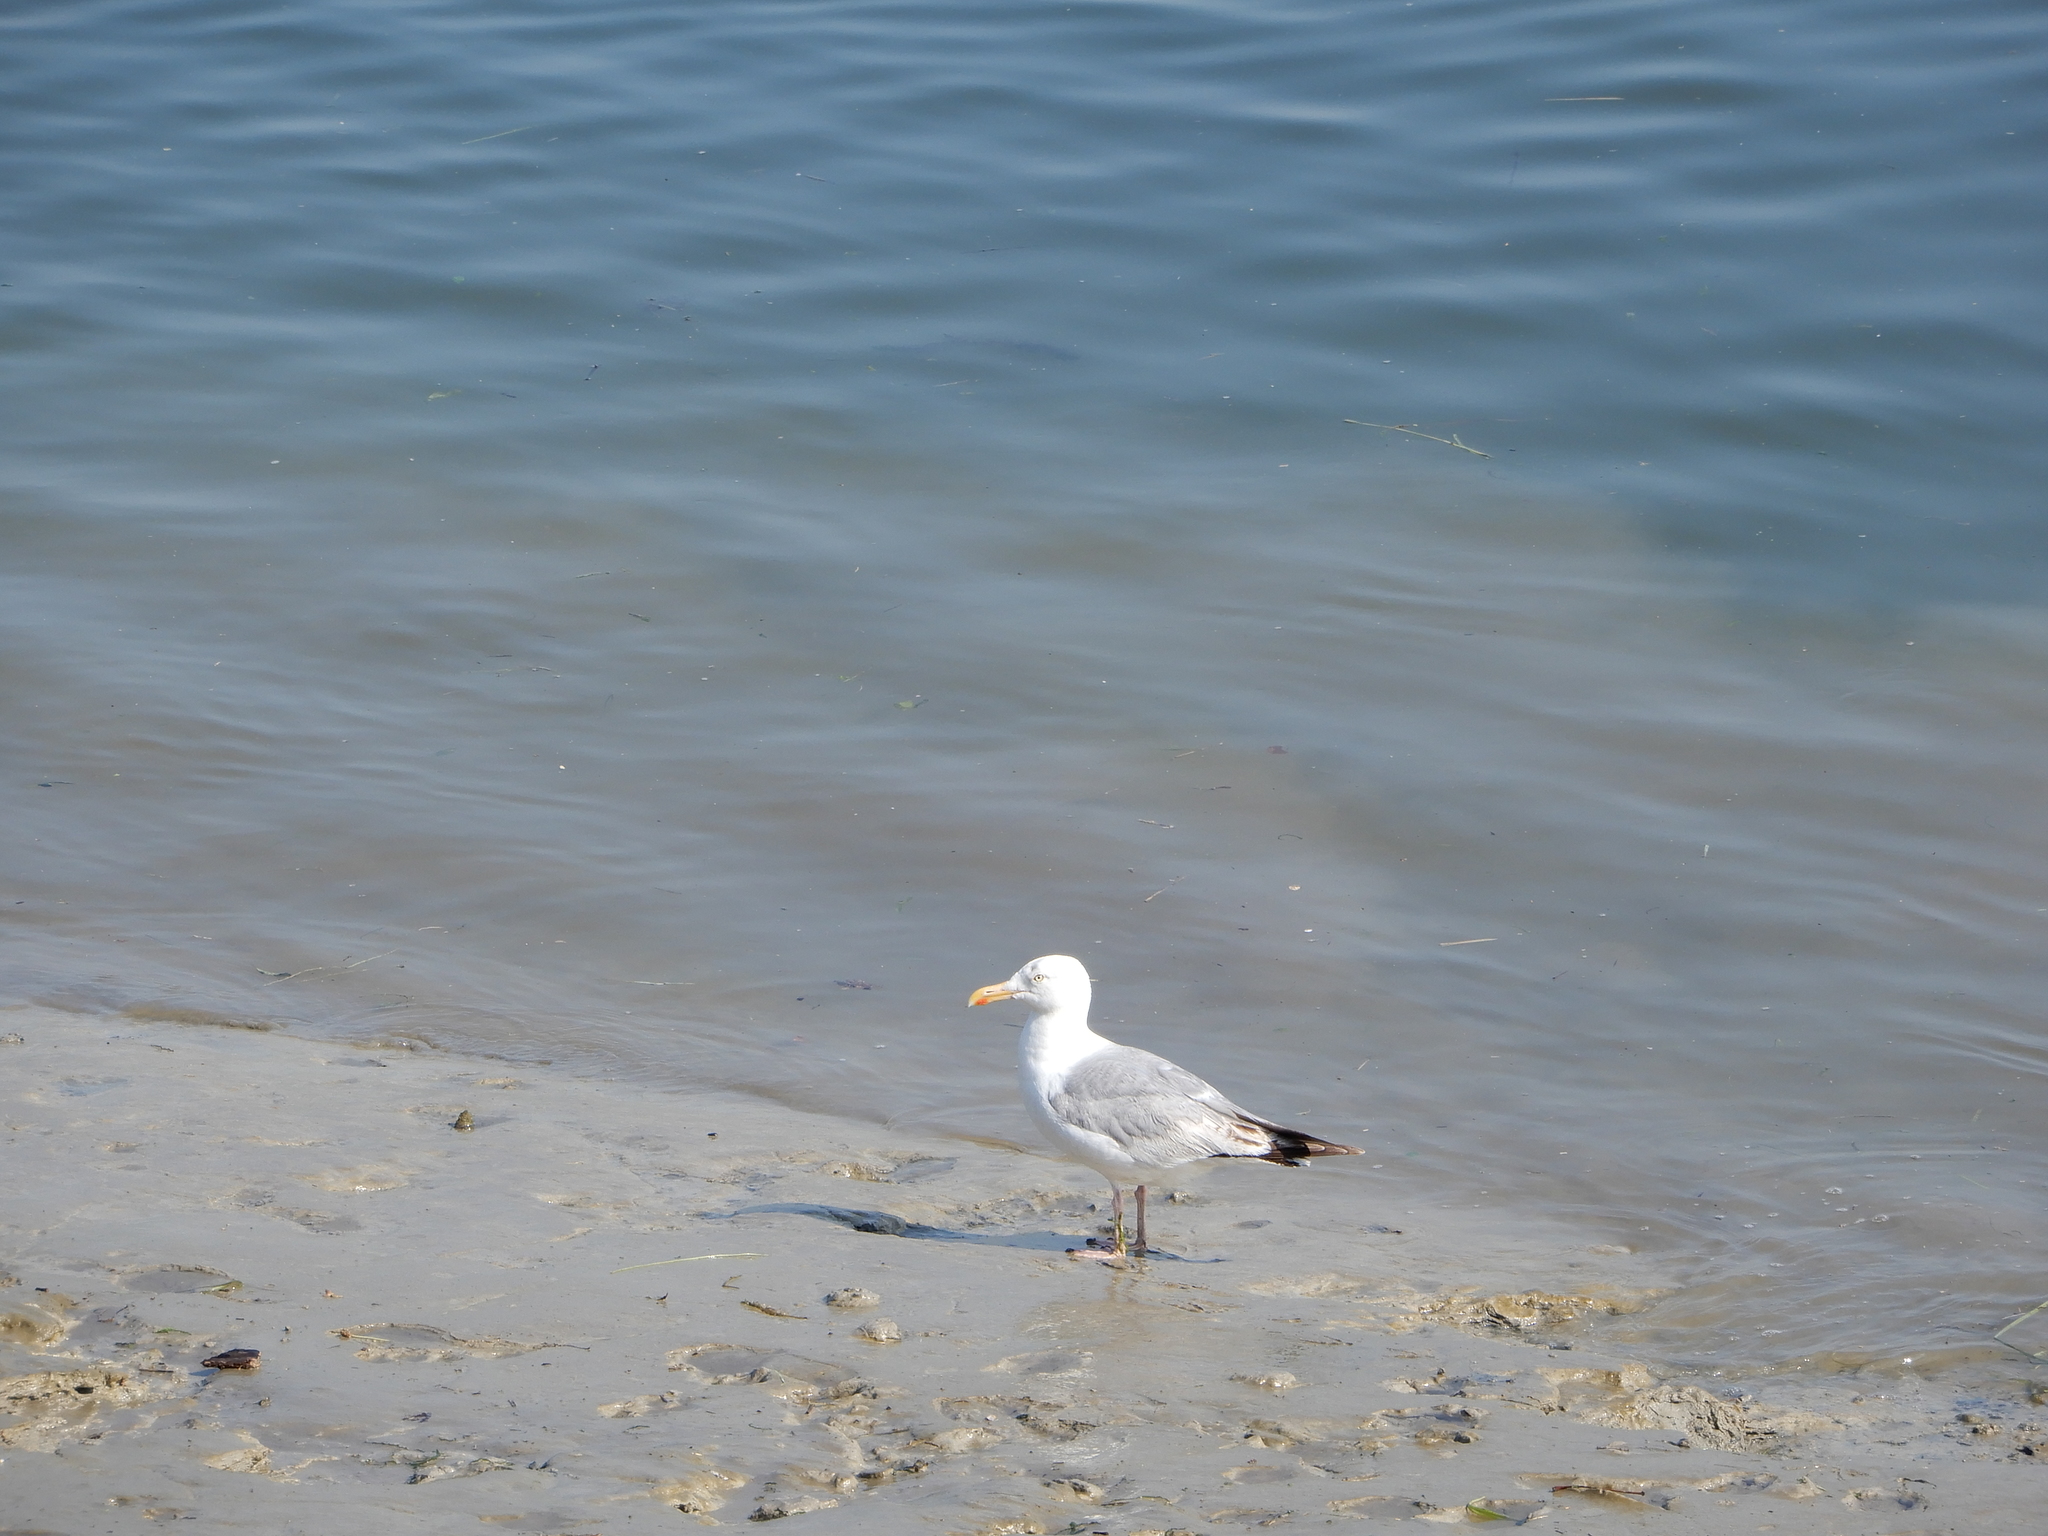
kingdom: Animalia
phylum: Chordata
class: Aves
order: Charadriiformes
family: Laridae
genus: Larus
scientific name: Larus argentatus
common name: Herring gull
